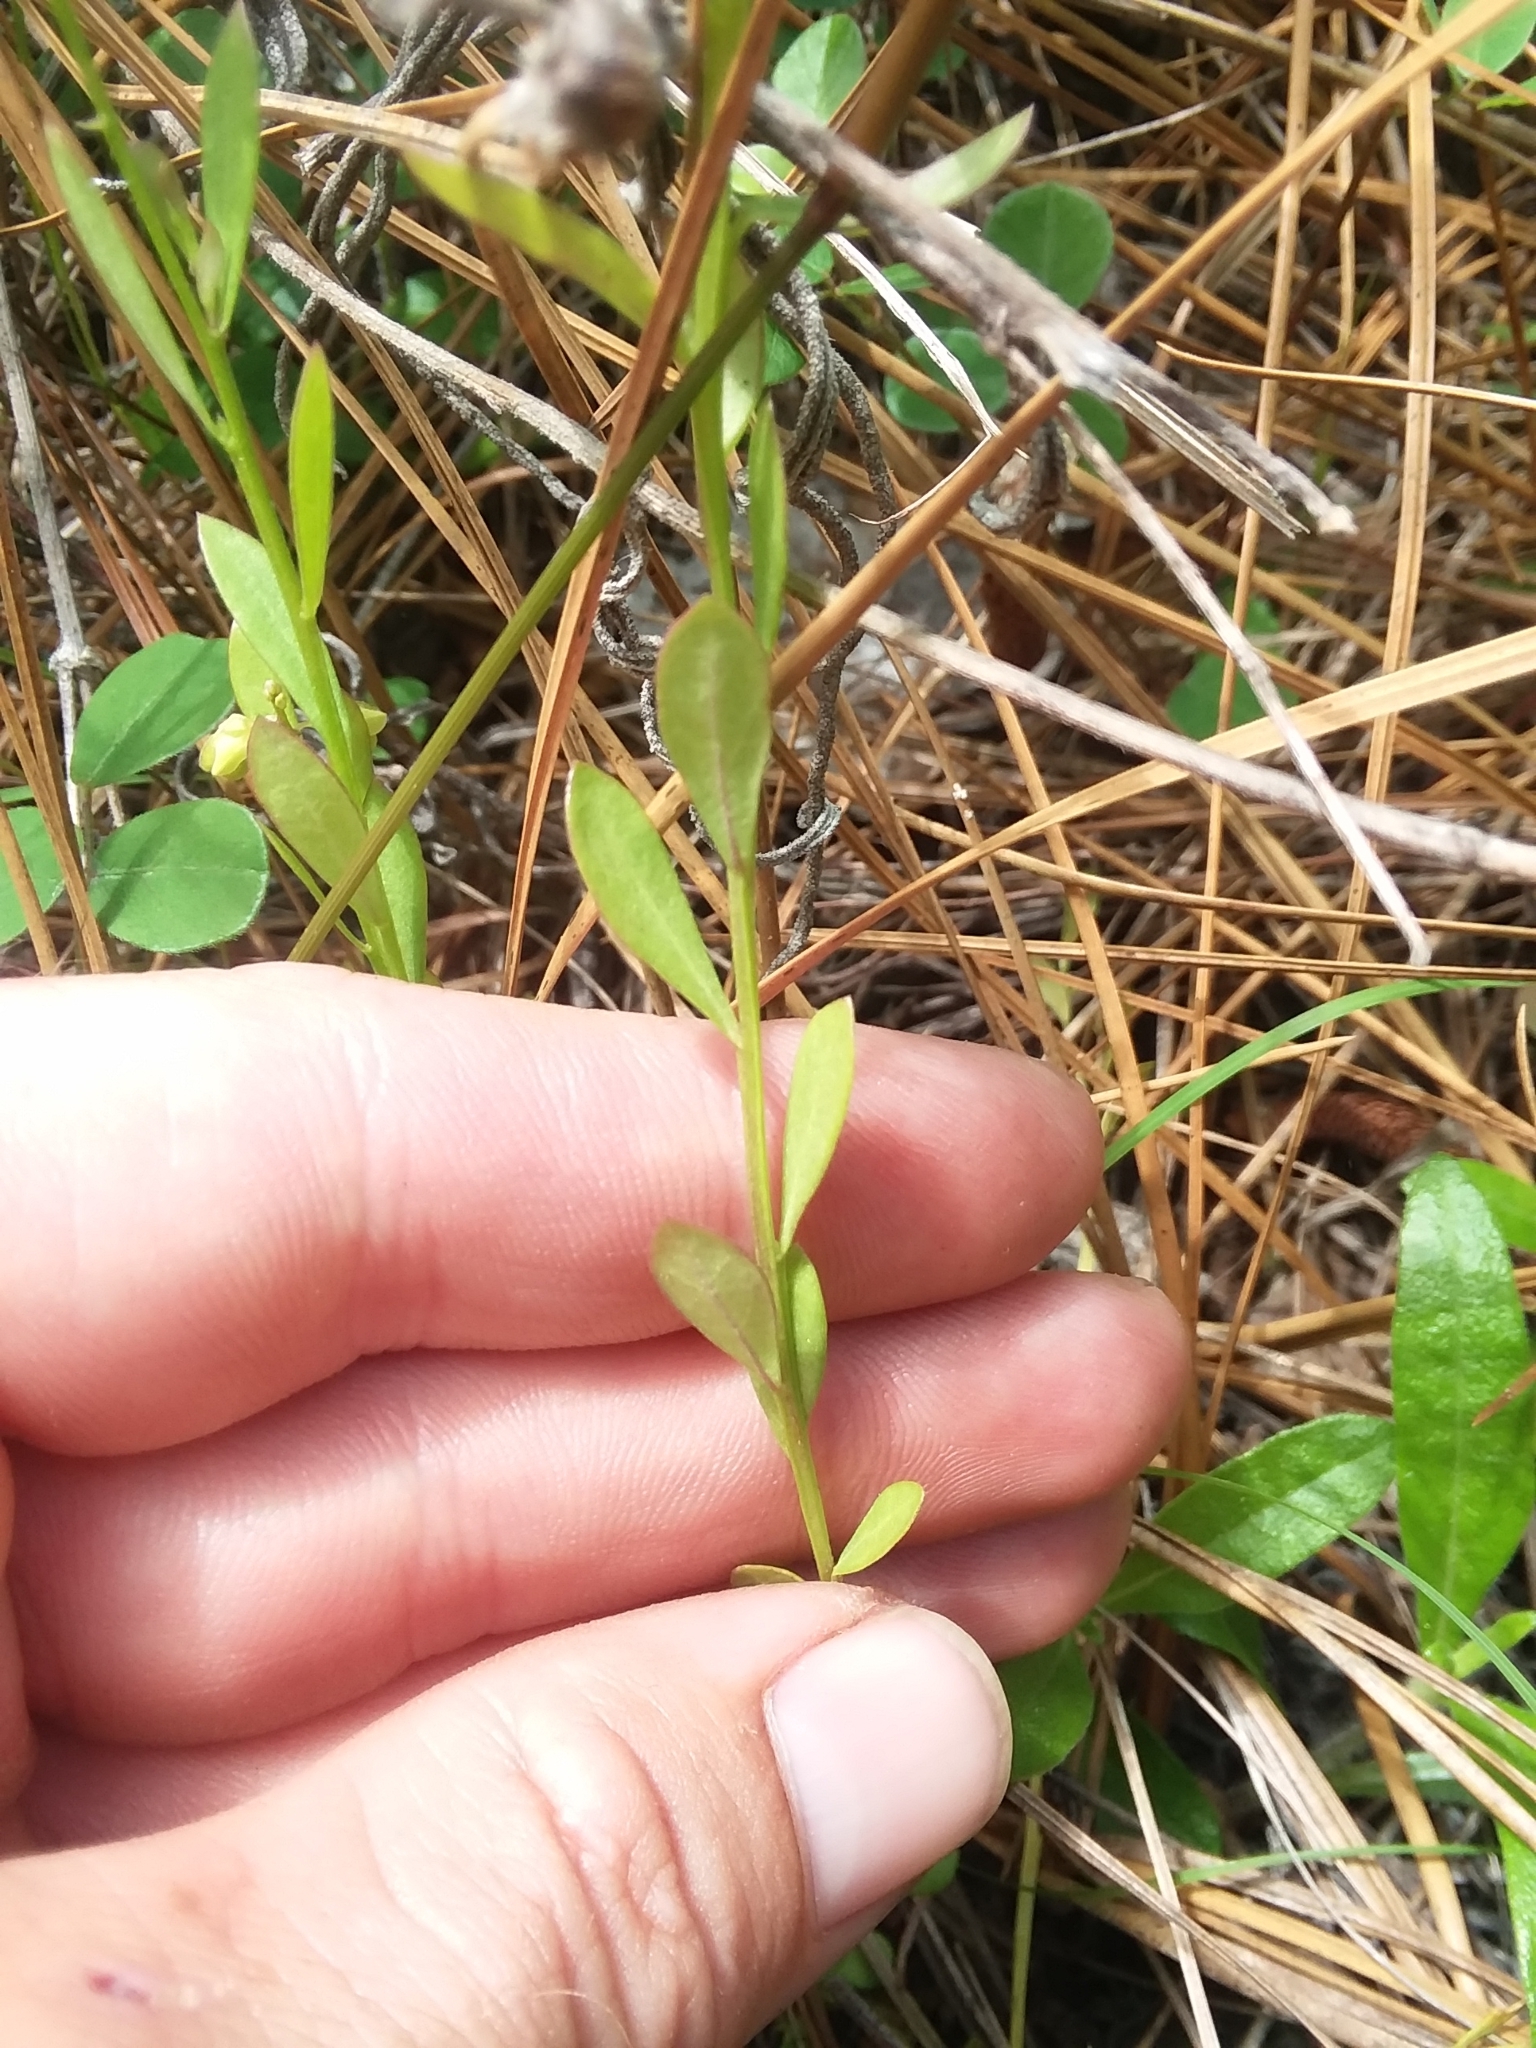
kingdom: Plantae
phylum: Tracheophyta
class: Magnoliopsida
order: Fabales
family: Polygalaceae
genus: Polygala
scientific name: Polygala crenata
